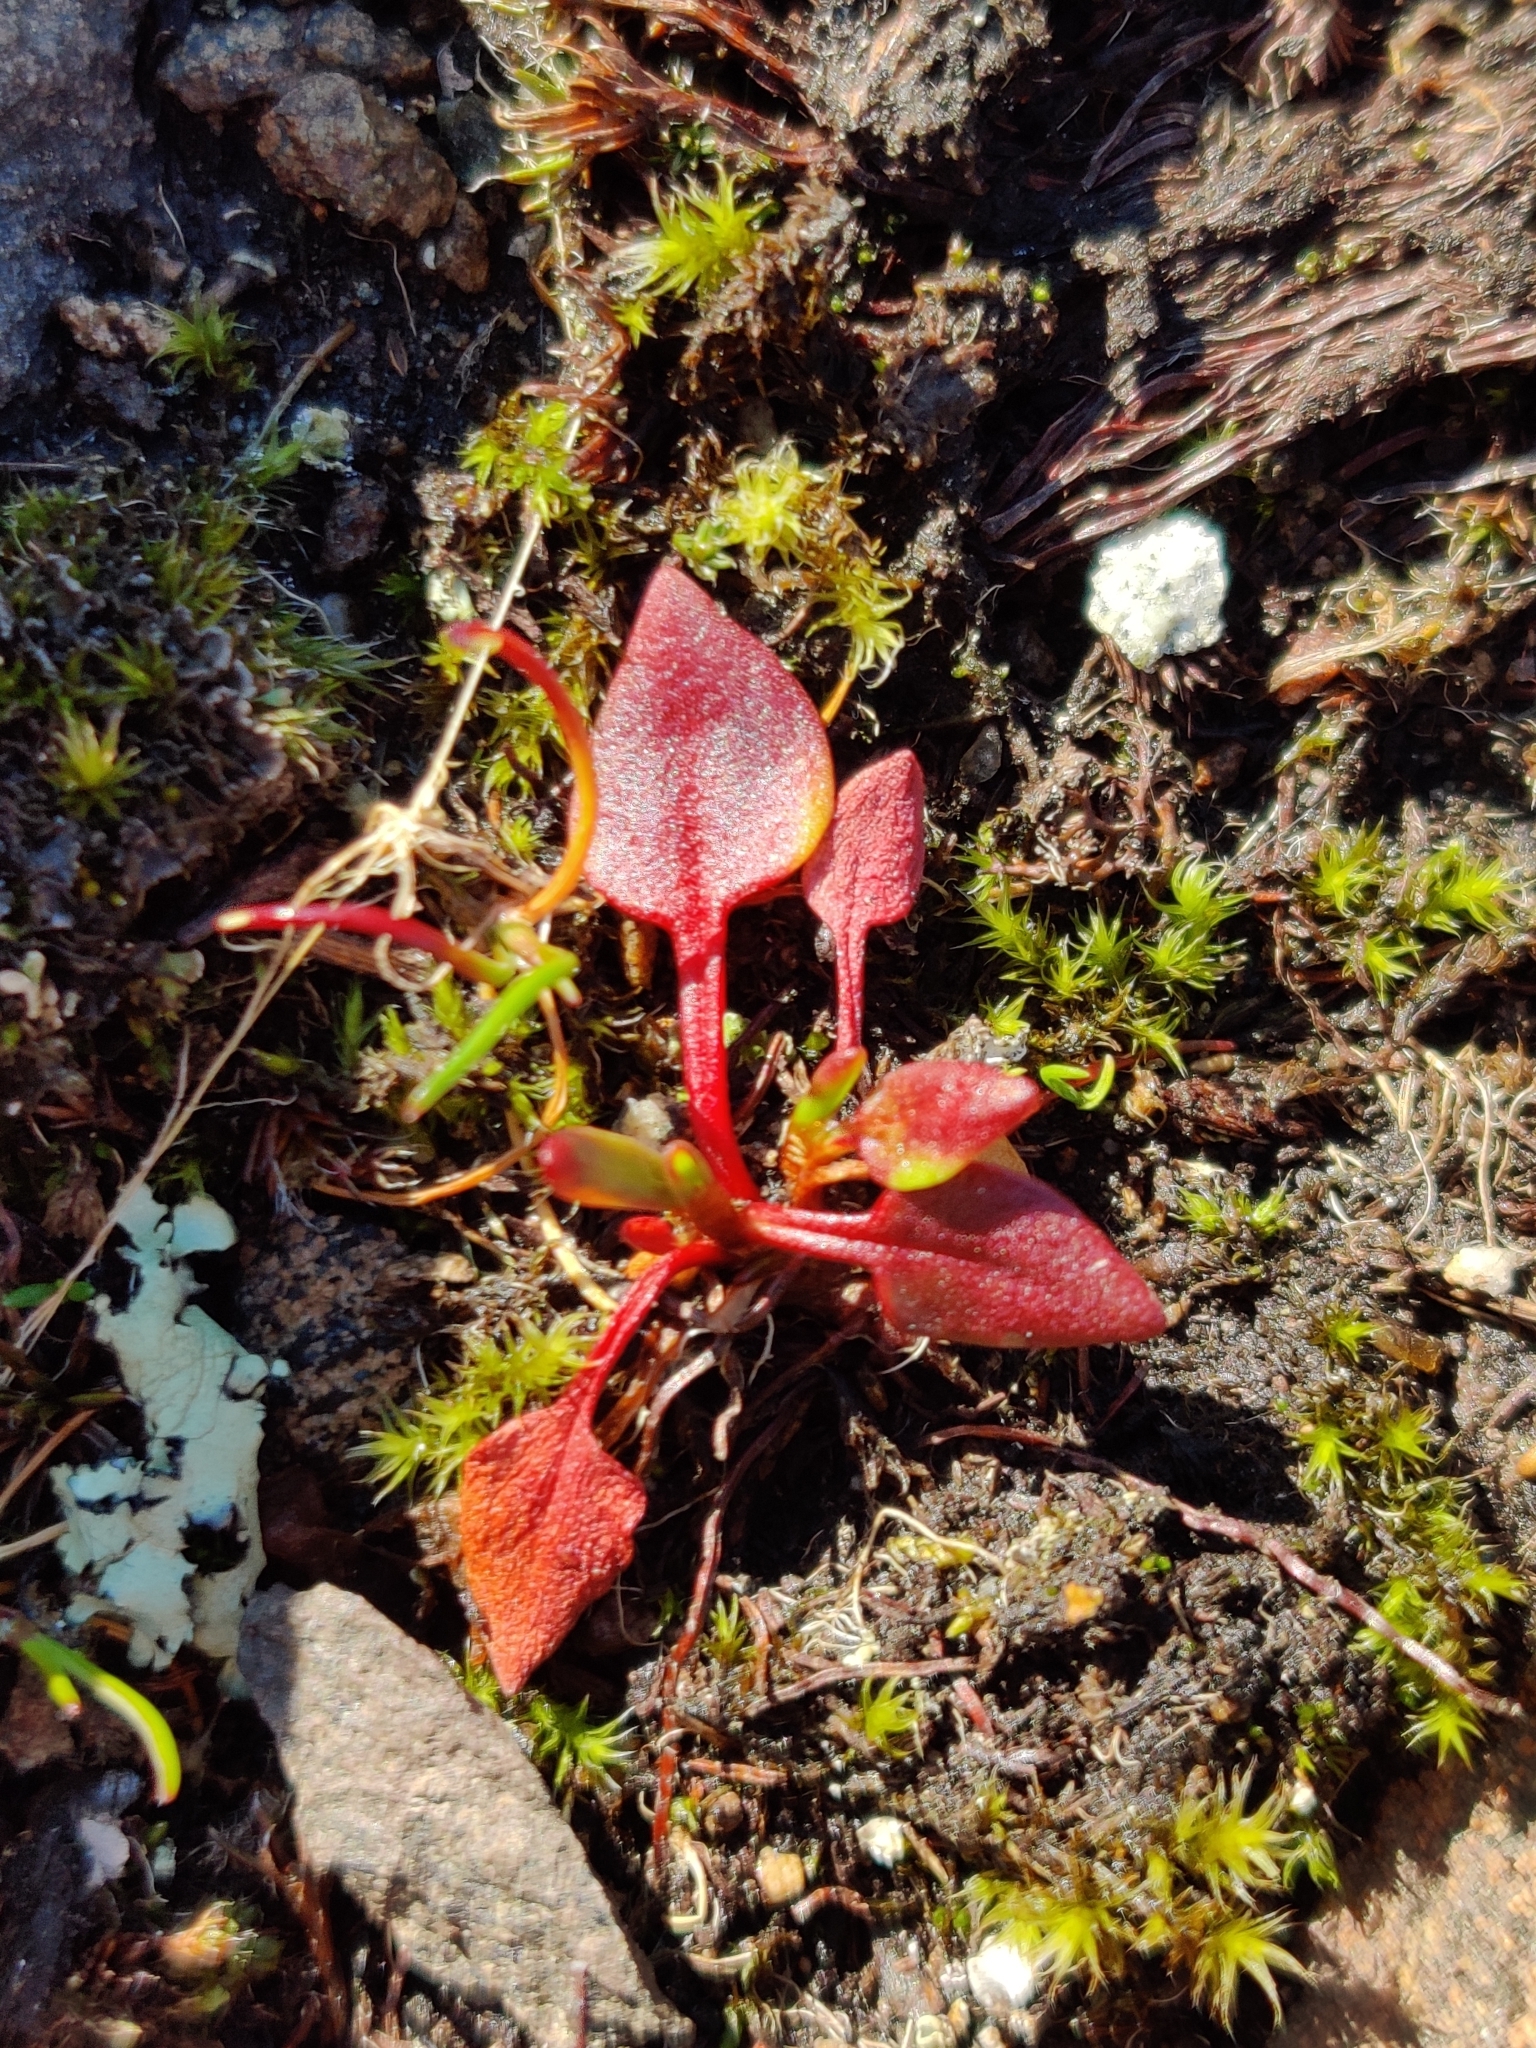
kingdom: Plantae
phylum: Tracheophyta
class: Magnoliopsida
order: Caryophyllales
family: Polygonaceae
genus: Rumex
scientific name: Rumex acetosella
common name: Common sheep sorrel
